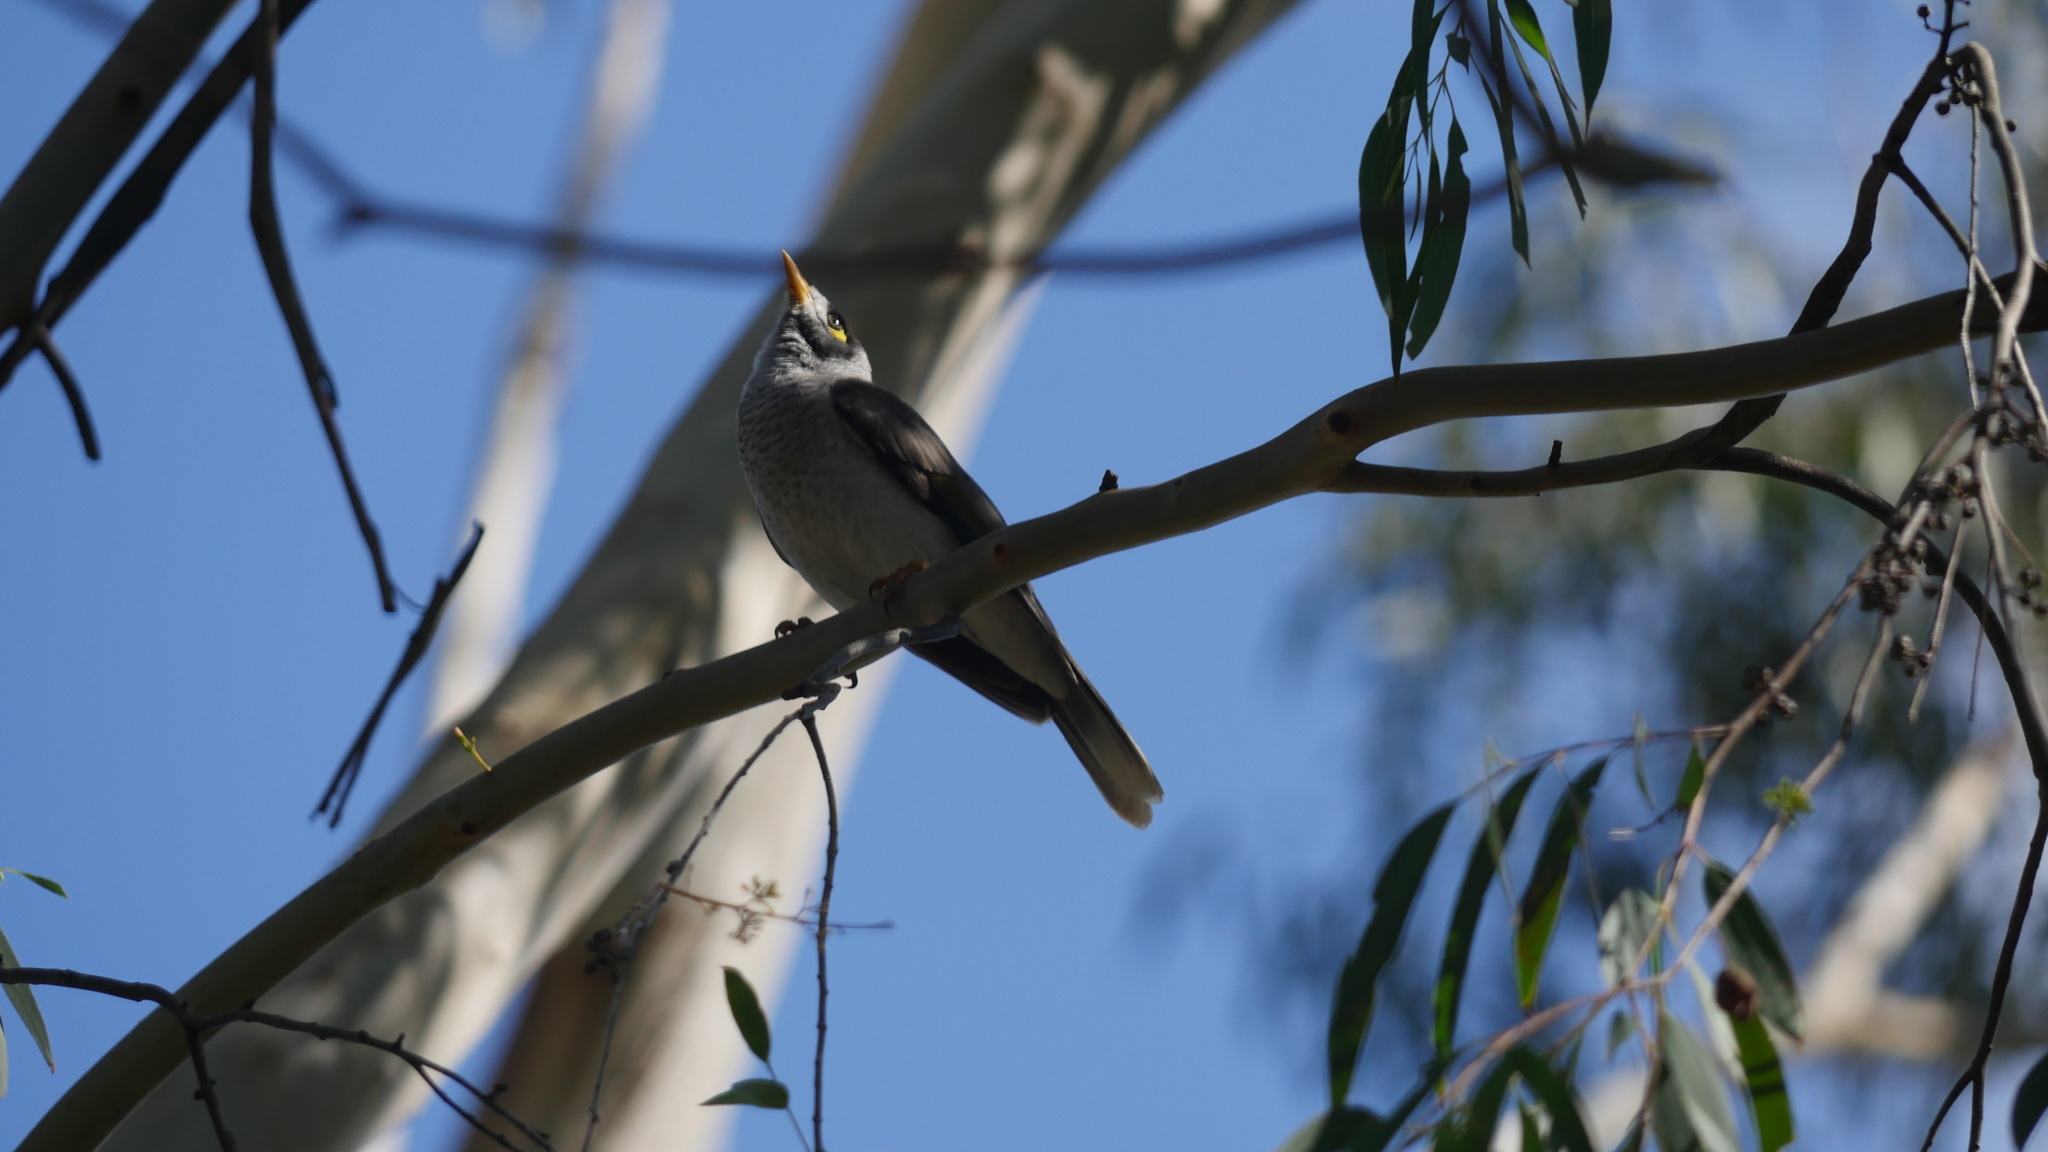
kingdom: Animalia
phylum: Chordata
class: Aves
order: Passeriformes
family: Meliphagidae
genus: Manorina
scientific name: Manorina melanocephala
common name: Noisy miner
